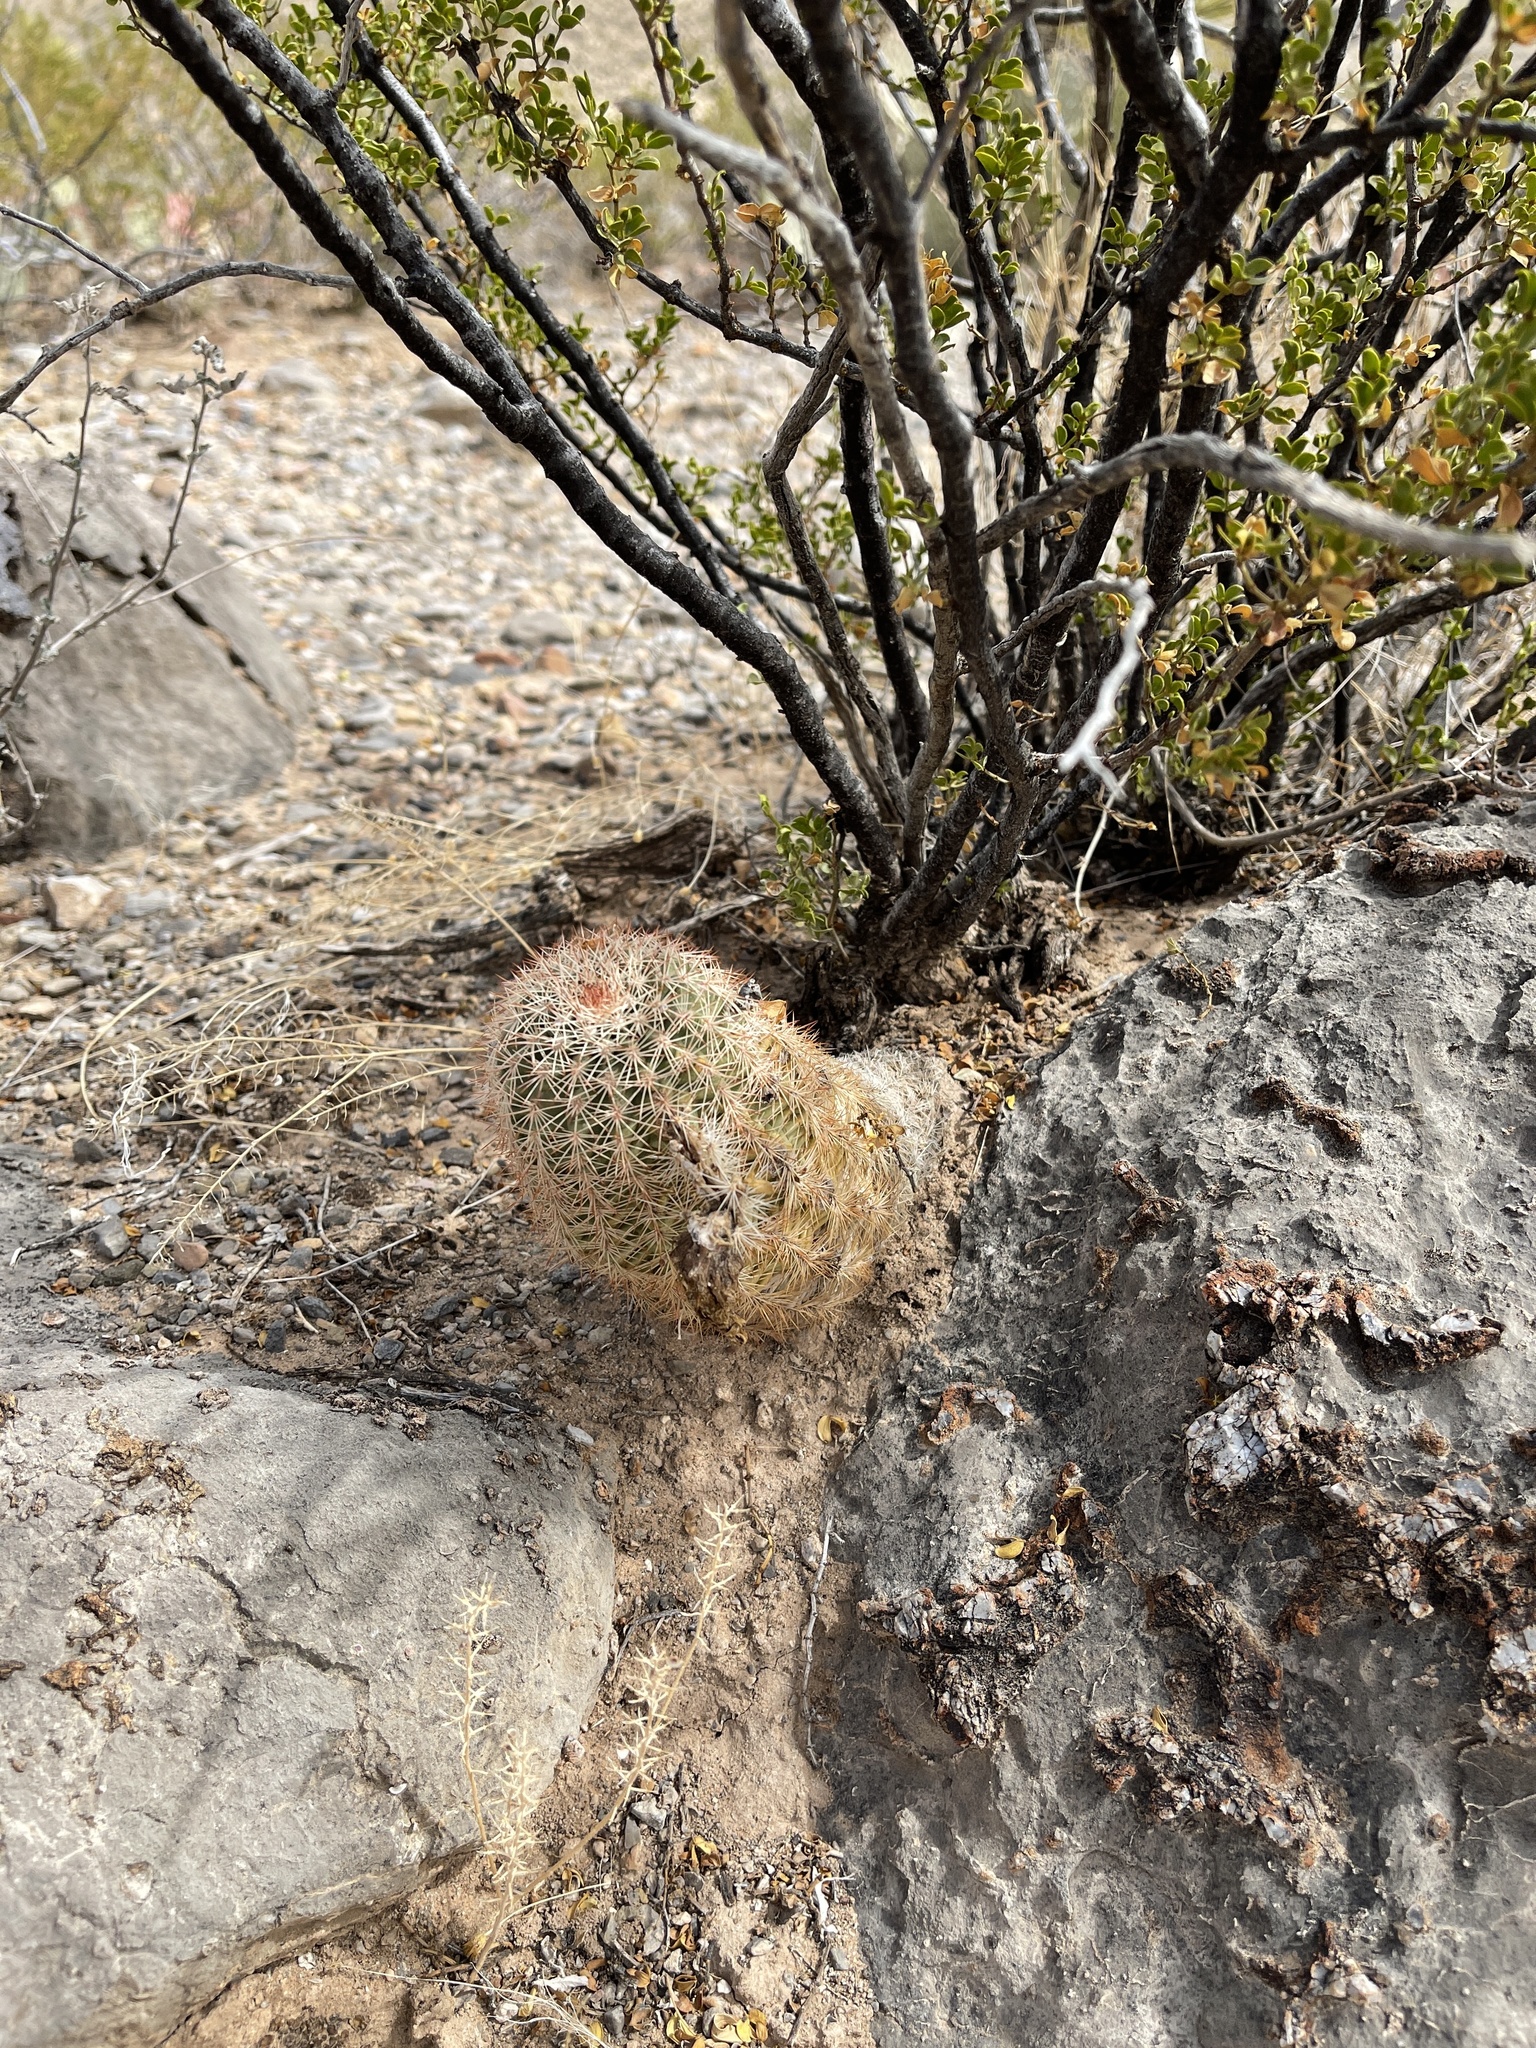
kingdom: Plantae
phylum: Tracheophyta
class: Magnoliopsida
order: Caryophyllales
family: Cactaceae
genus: Echinocereus
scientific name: Echinocereus dasyacanthus
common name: Spiny hedgehog cactus
